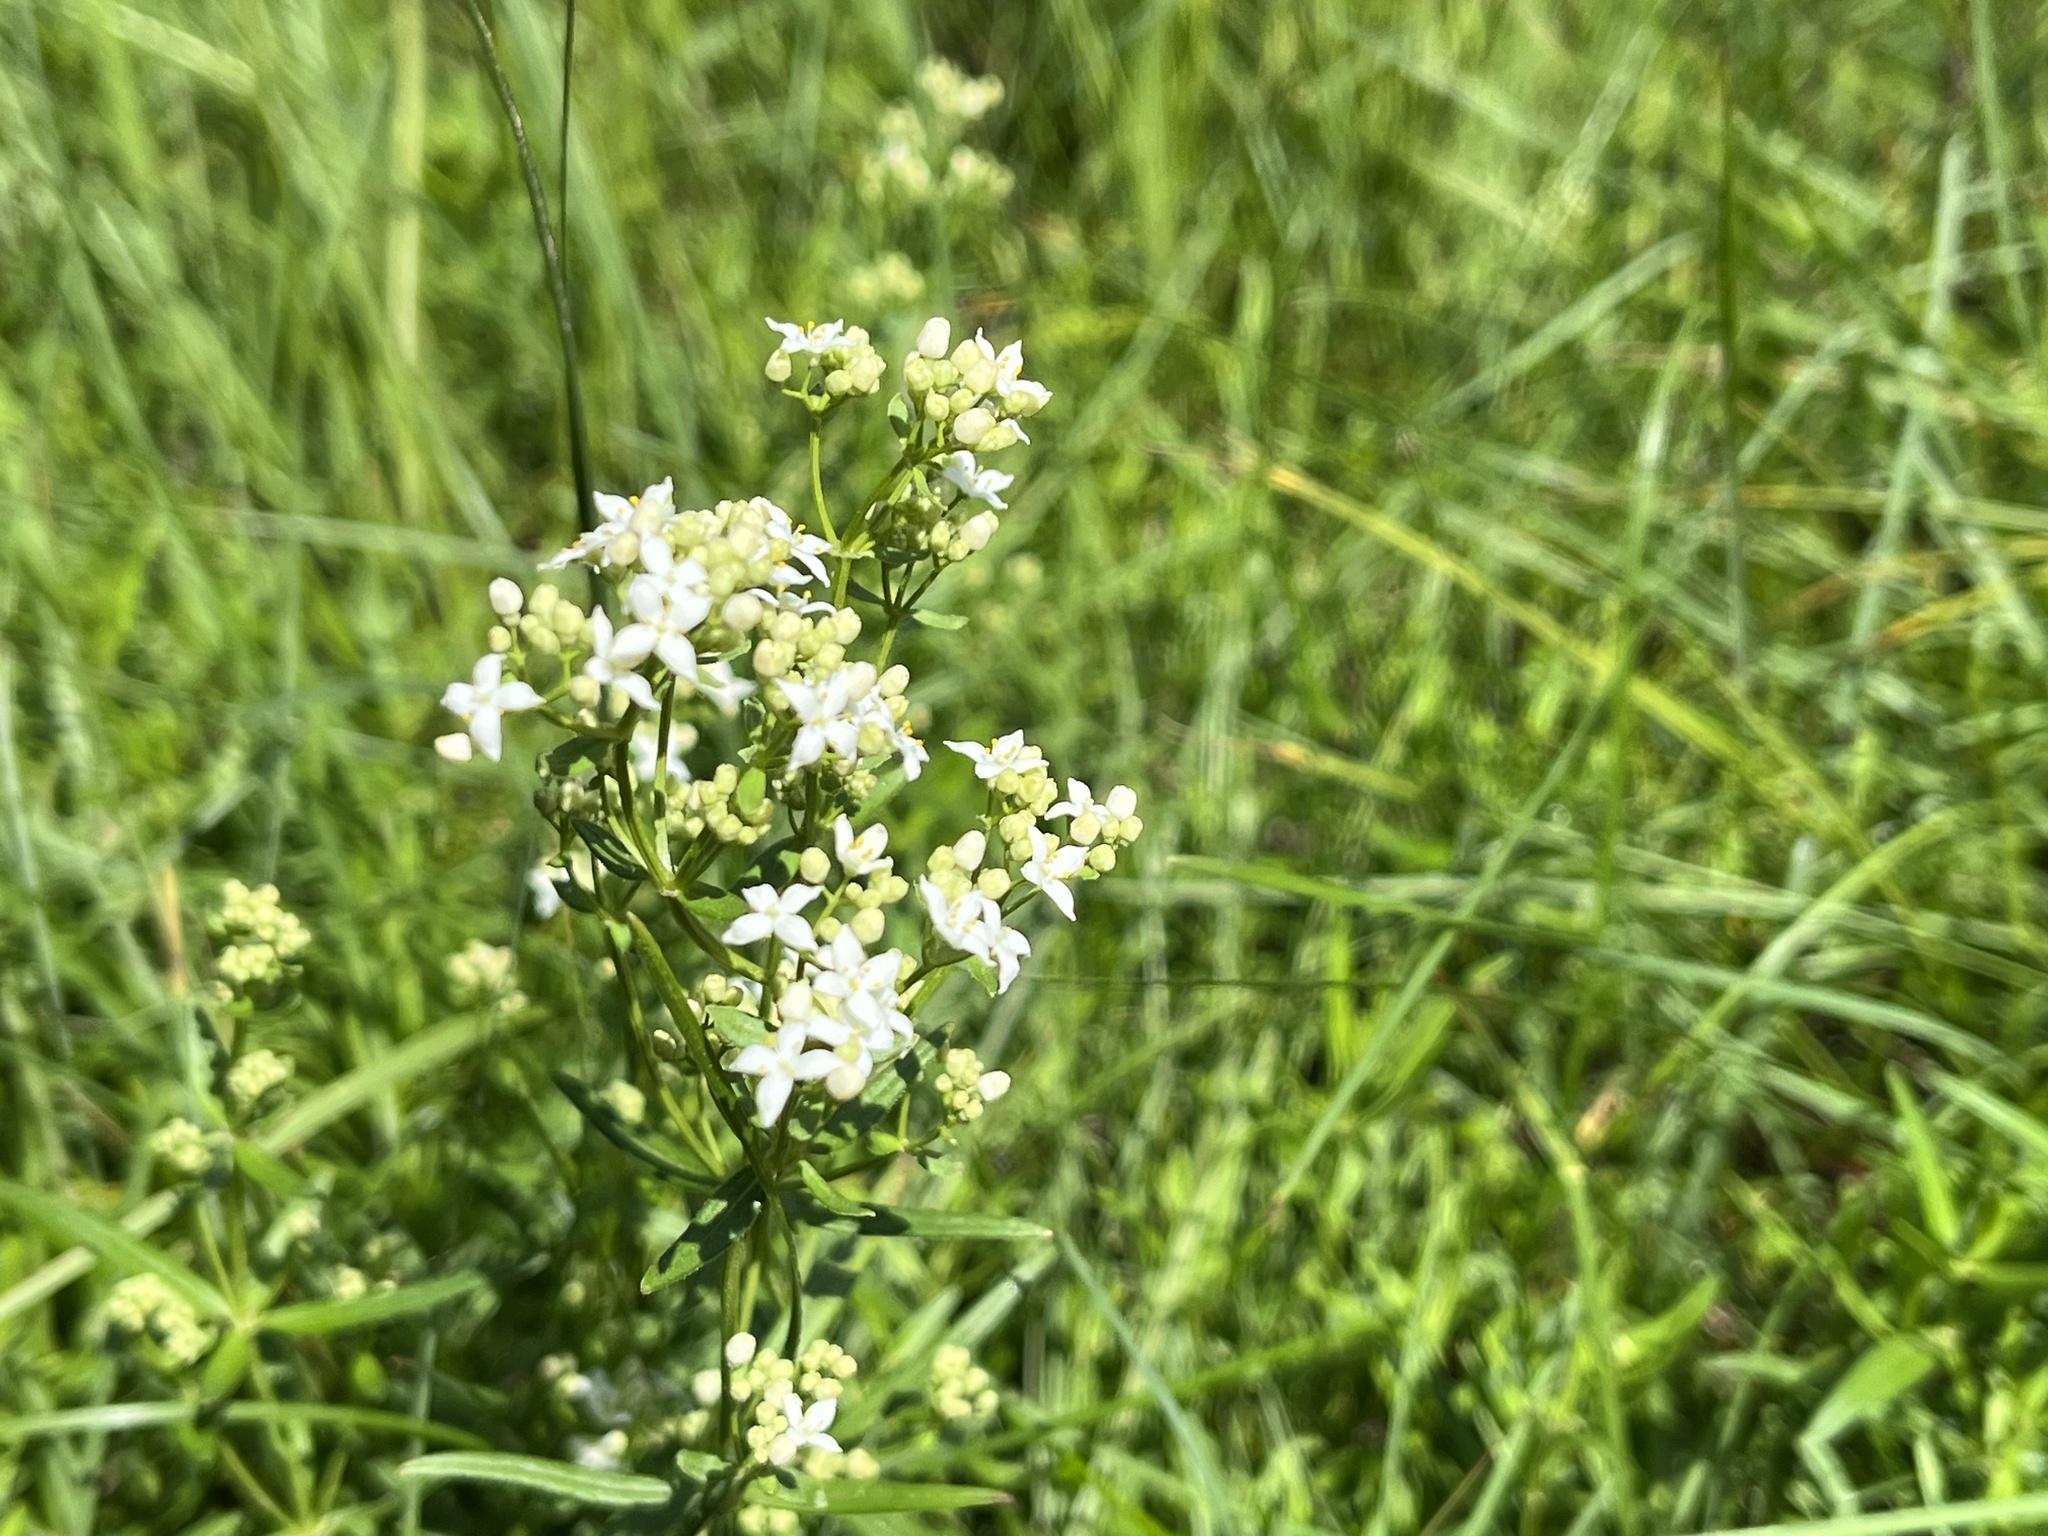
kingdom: Plantae
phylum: Tracheophyta
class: Magnoliopsida
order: Gentianales
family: Rubiaceae
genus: Galium
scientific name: Galium boreale
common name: Northern bedstraw
